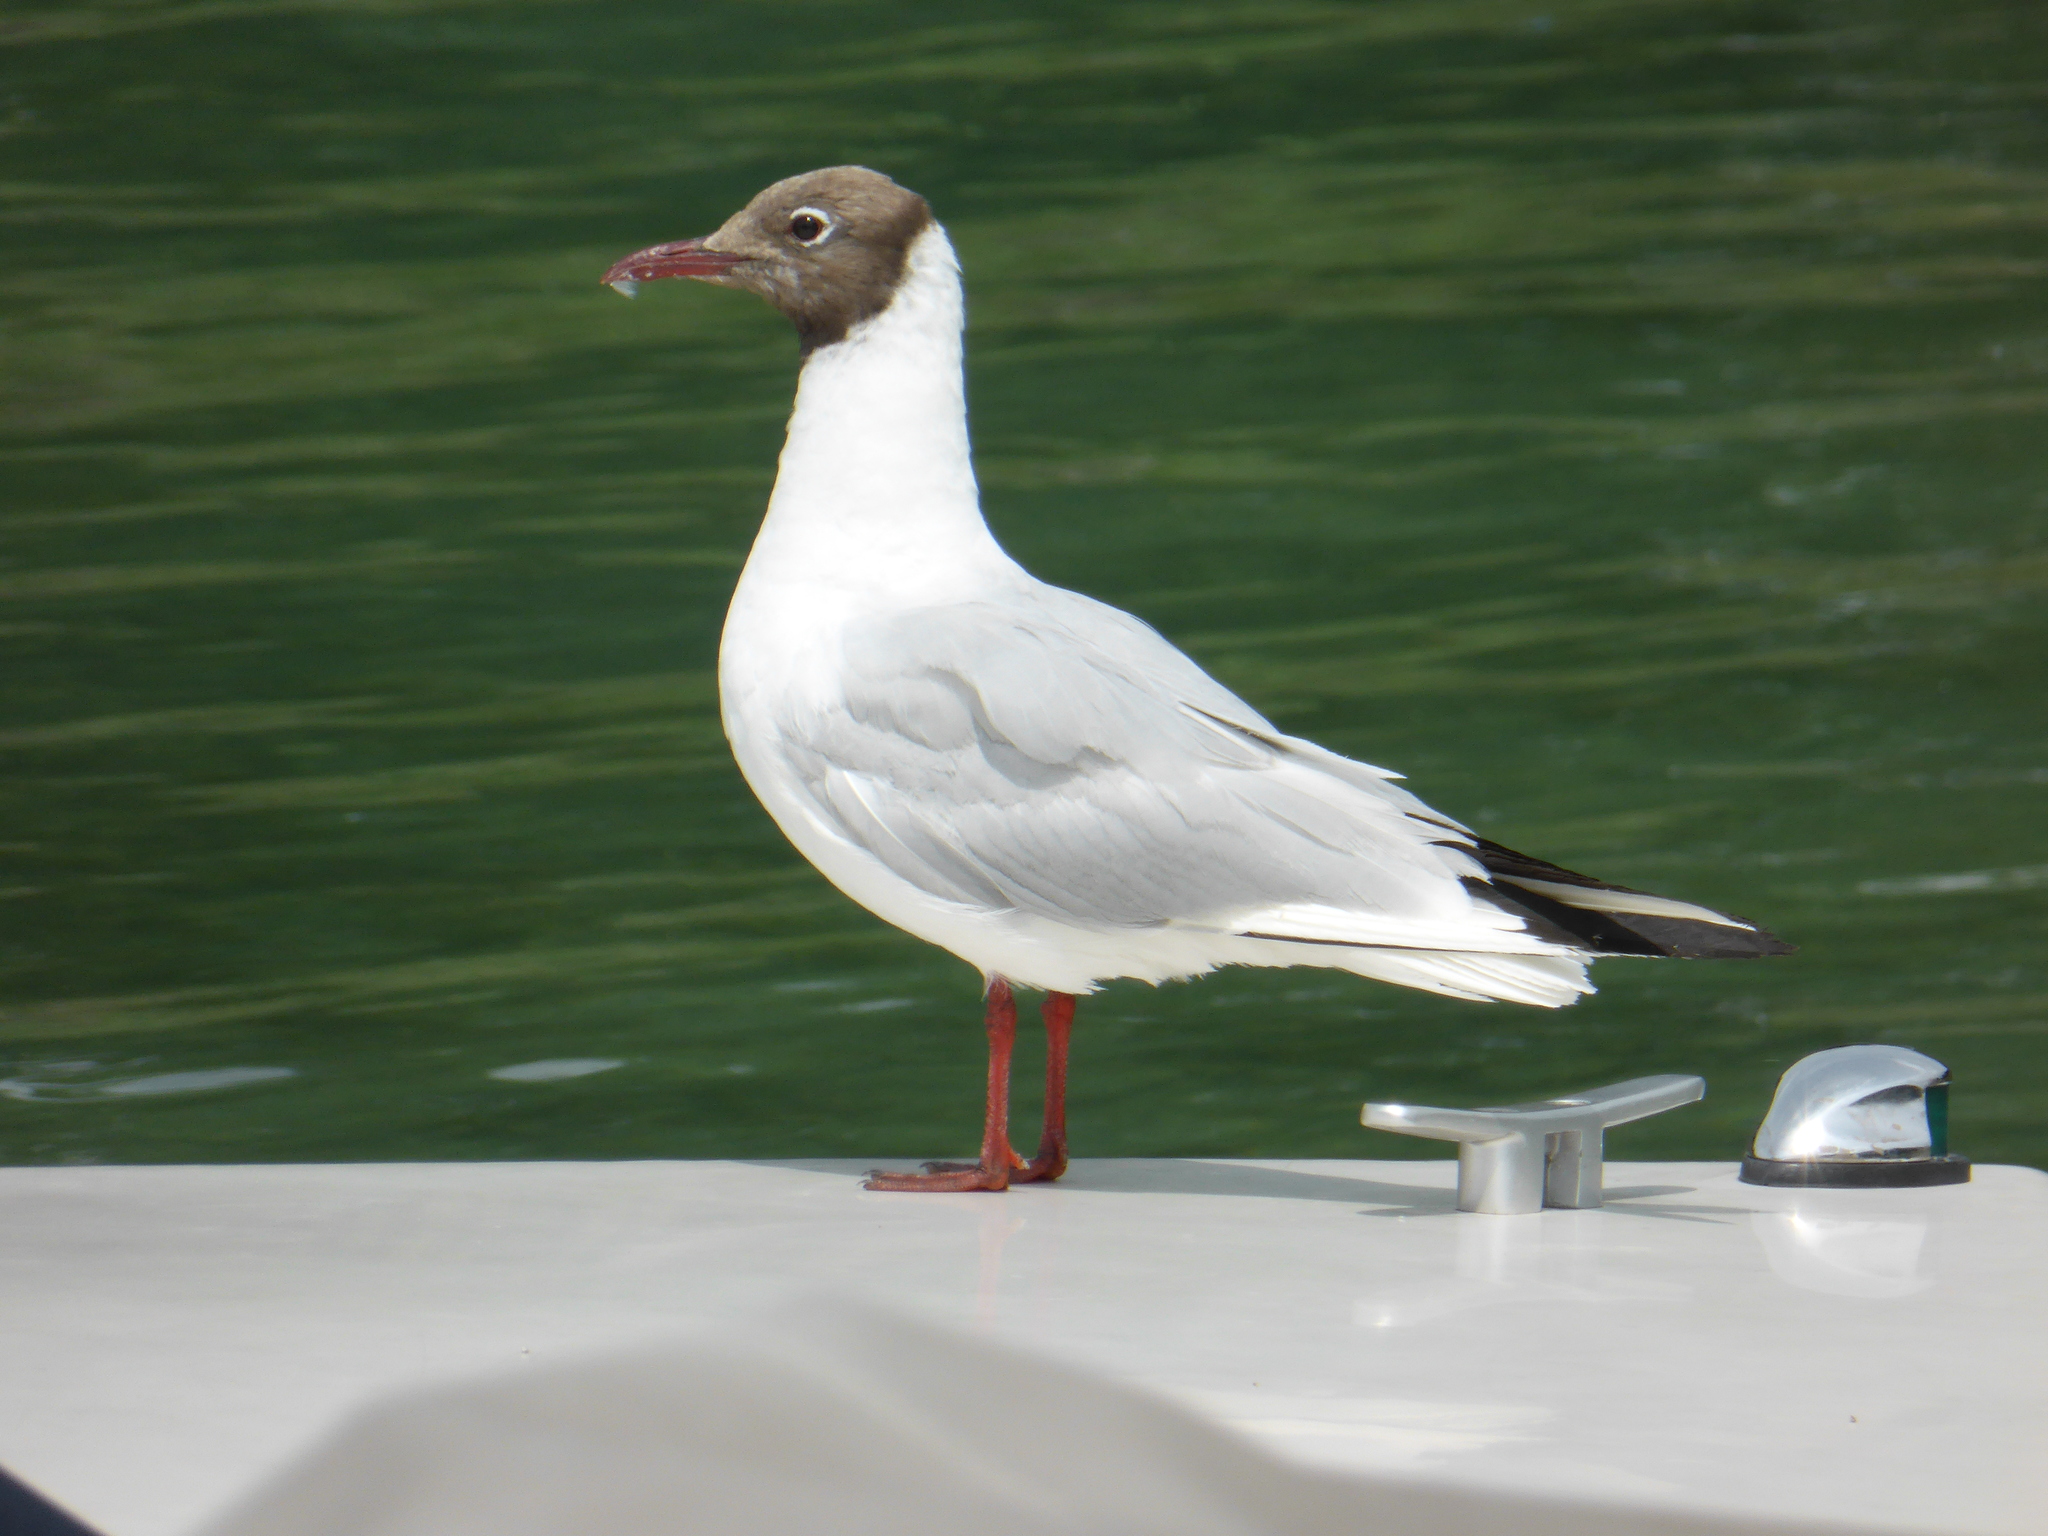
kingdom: Animalia
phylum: Chordata
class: Aves
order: Charadriiformes
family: Laridae
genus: Chroicocephalus
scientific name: Chroicocephalus ridibundus
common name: Black-headed gull
